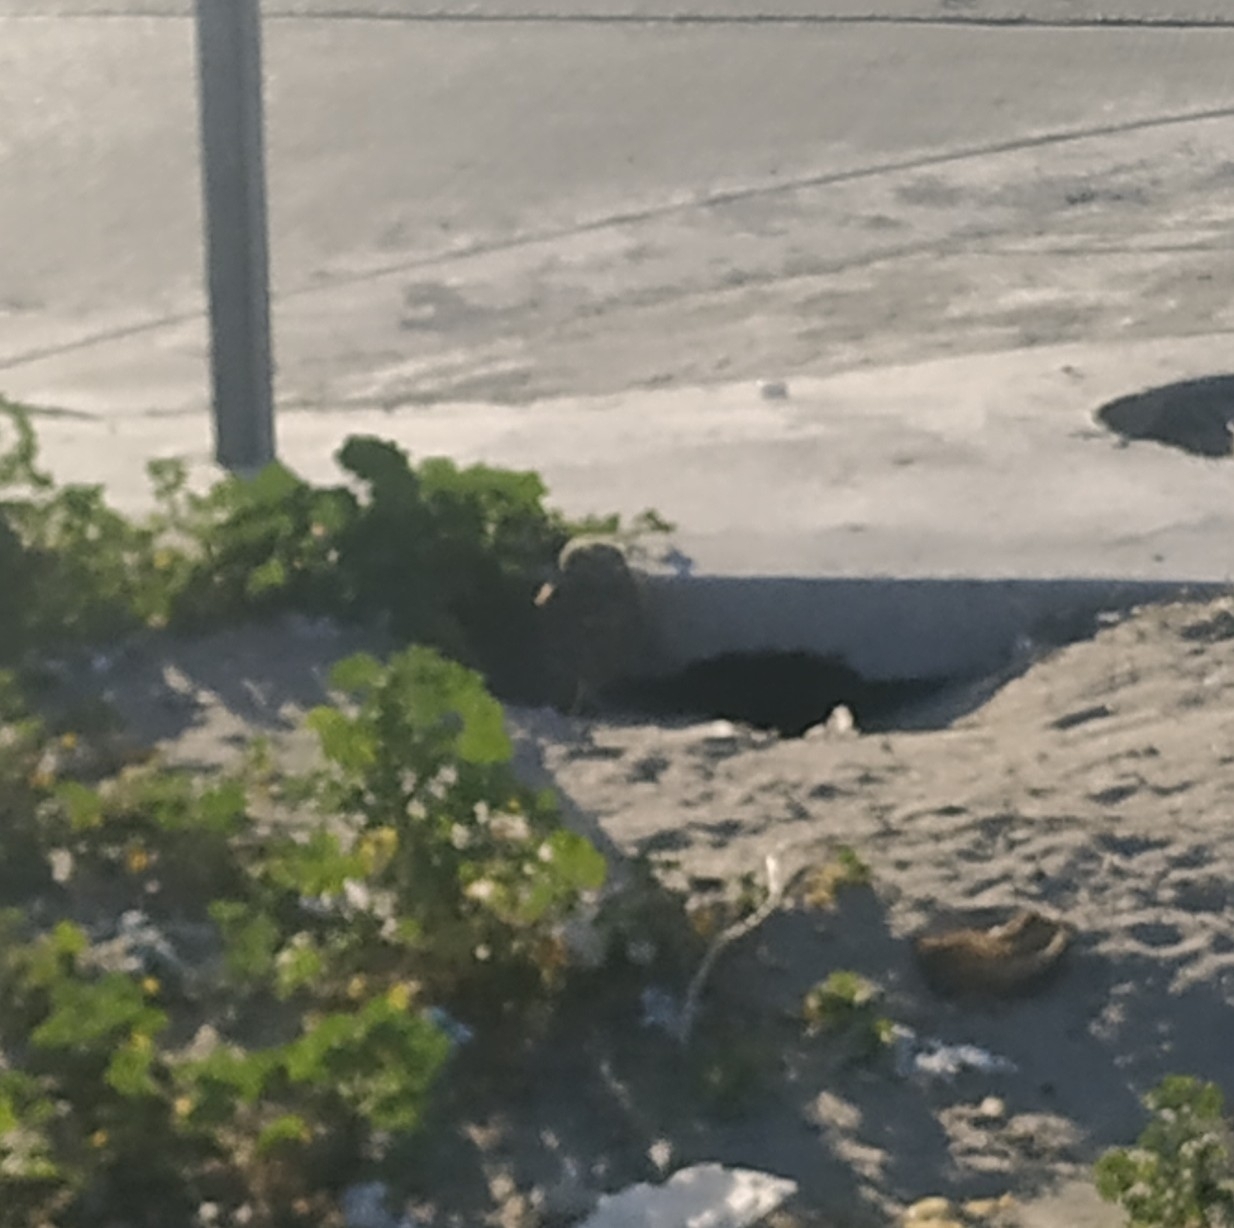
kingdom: Animalia
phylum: Chordata
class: Aves
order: Strigiformes
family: Strigidae
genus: Athene
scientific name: Athene cunicularia
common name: Burrowing owl
